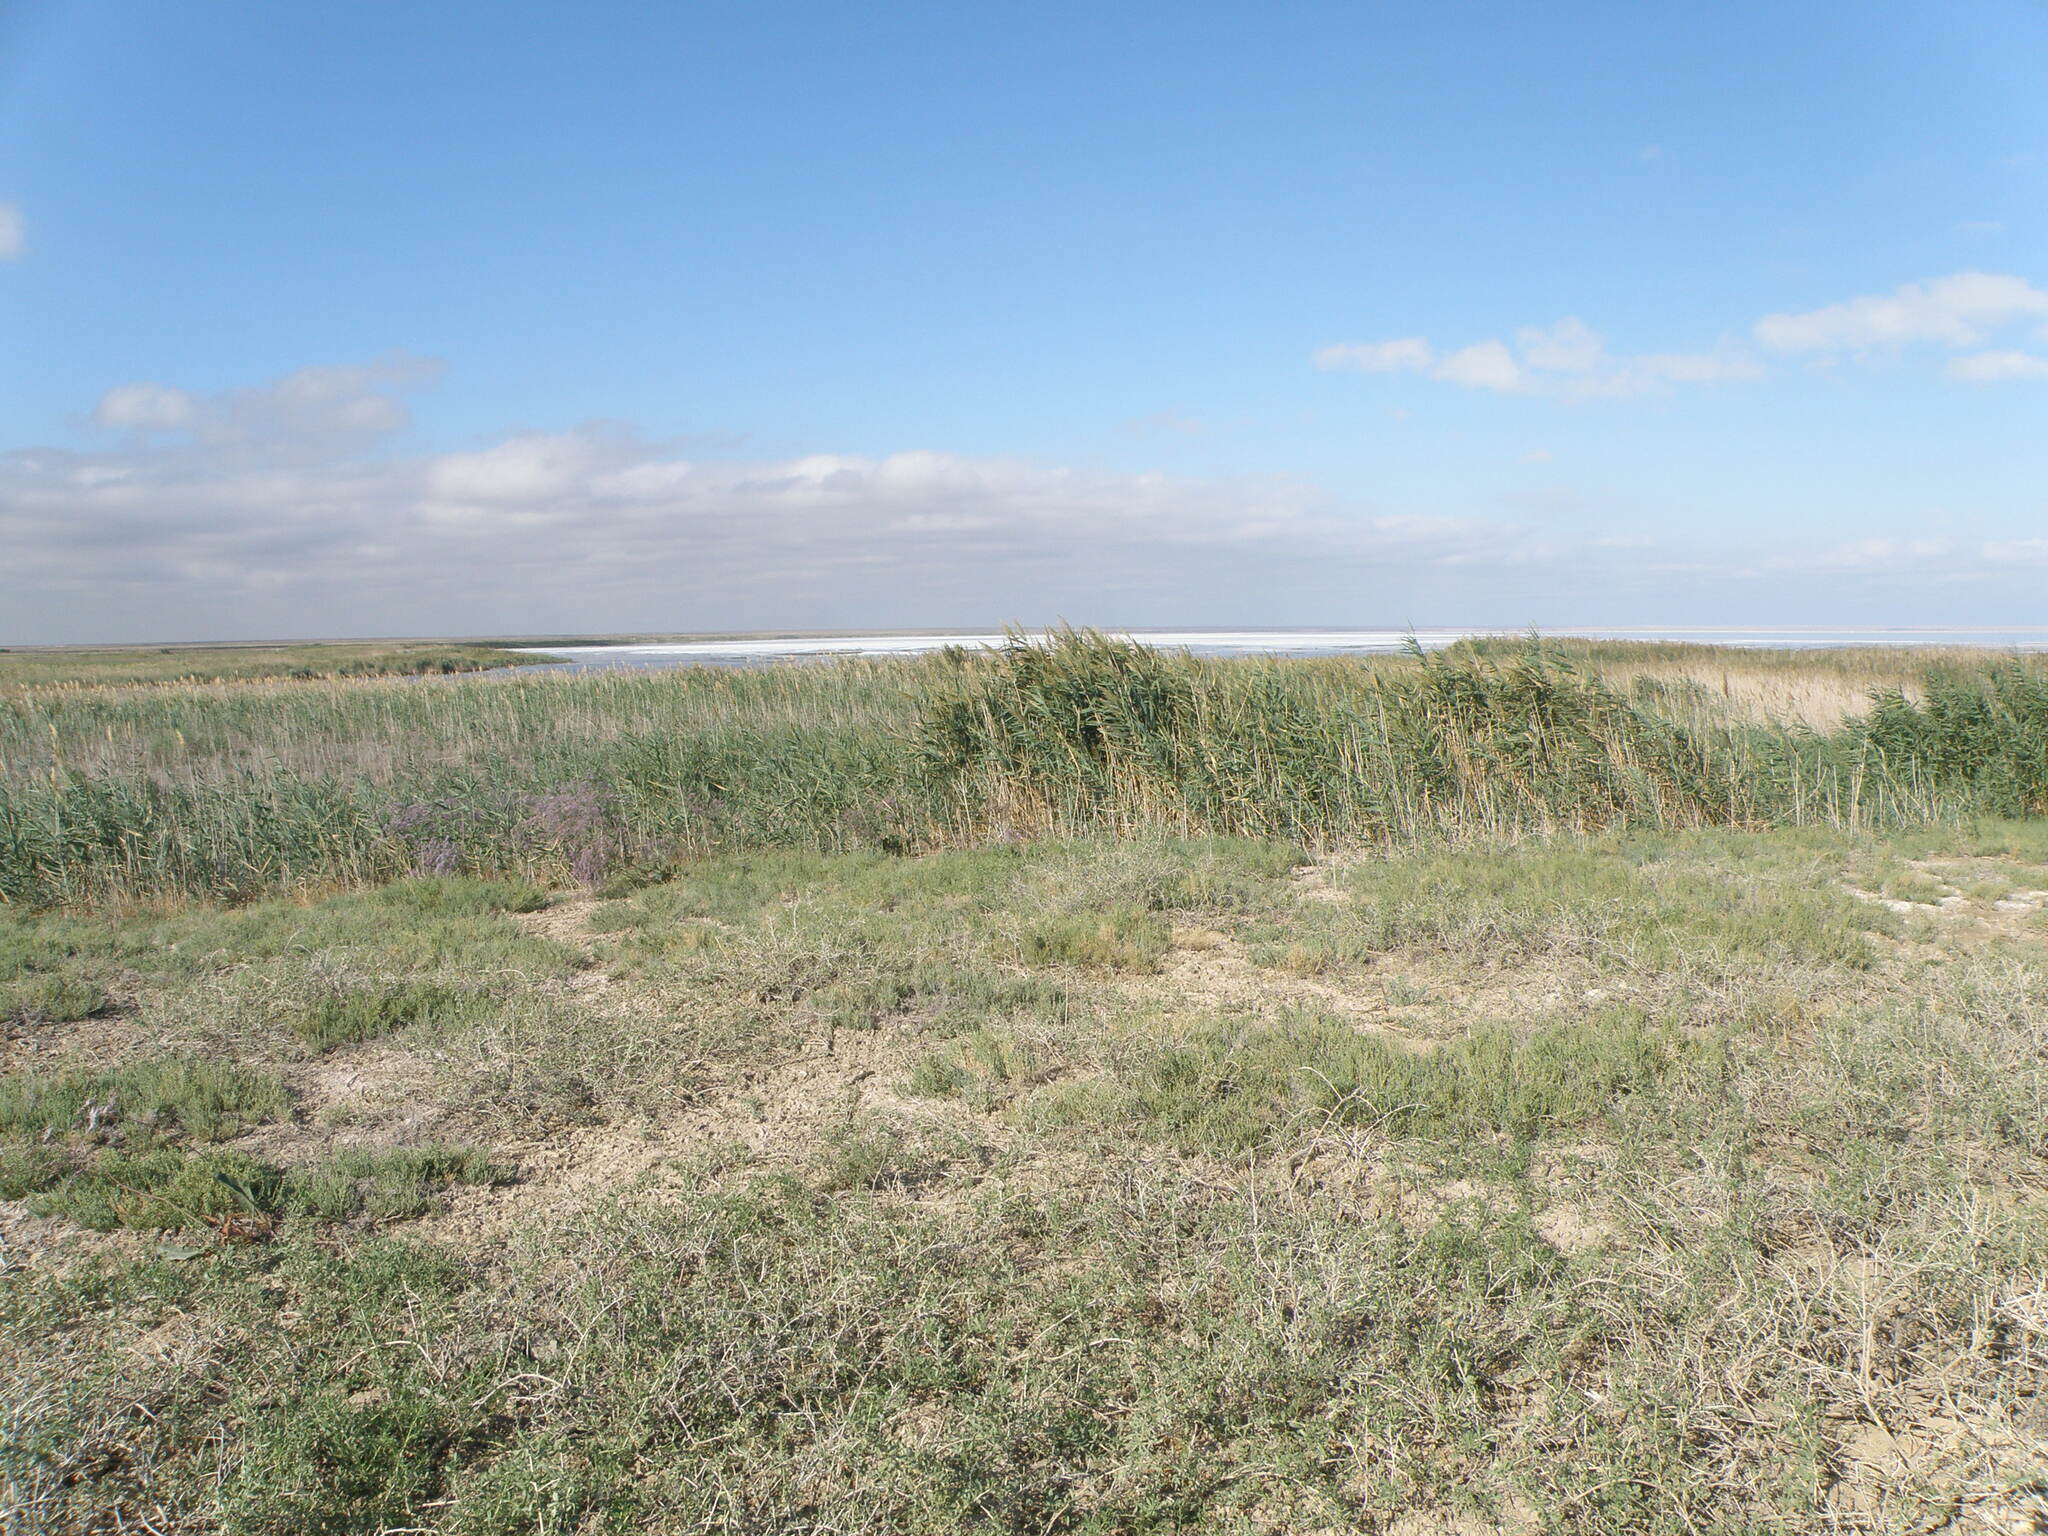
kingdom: Plantae
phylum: Tracheophyta
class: Liliopsida
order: Poales
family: Poaceae
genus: Phragmites
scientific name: Phragmites australis
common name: Common reed
